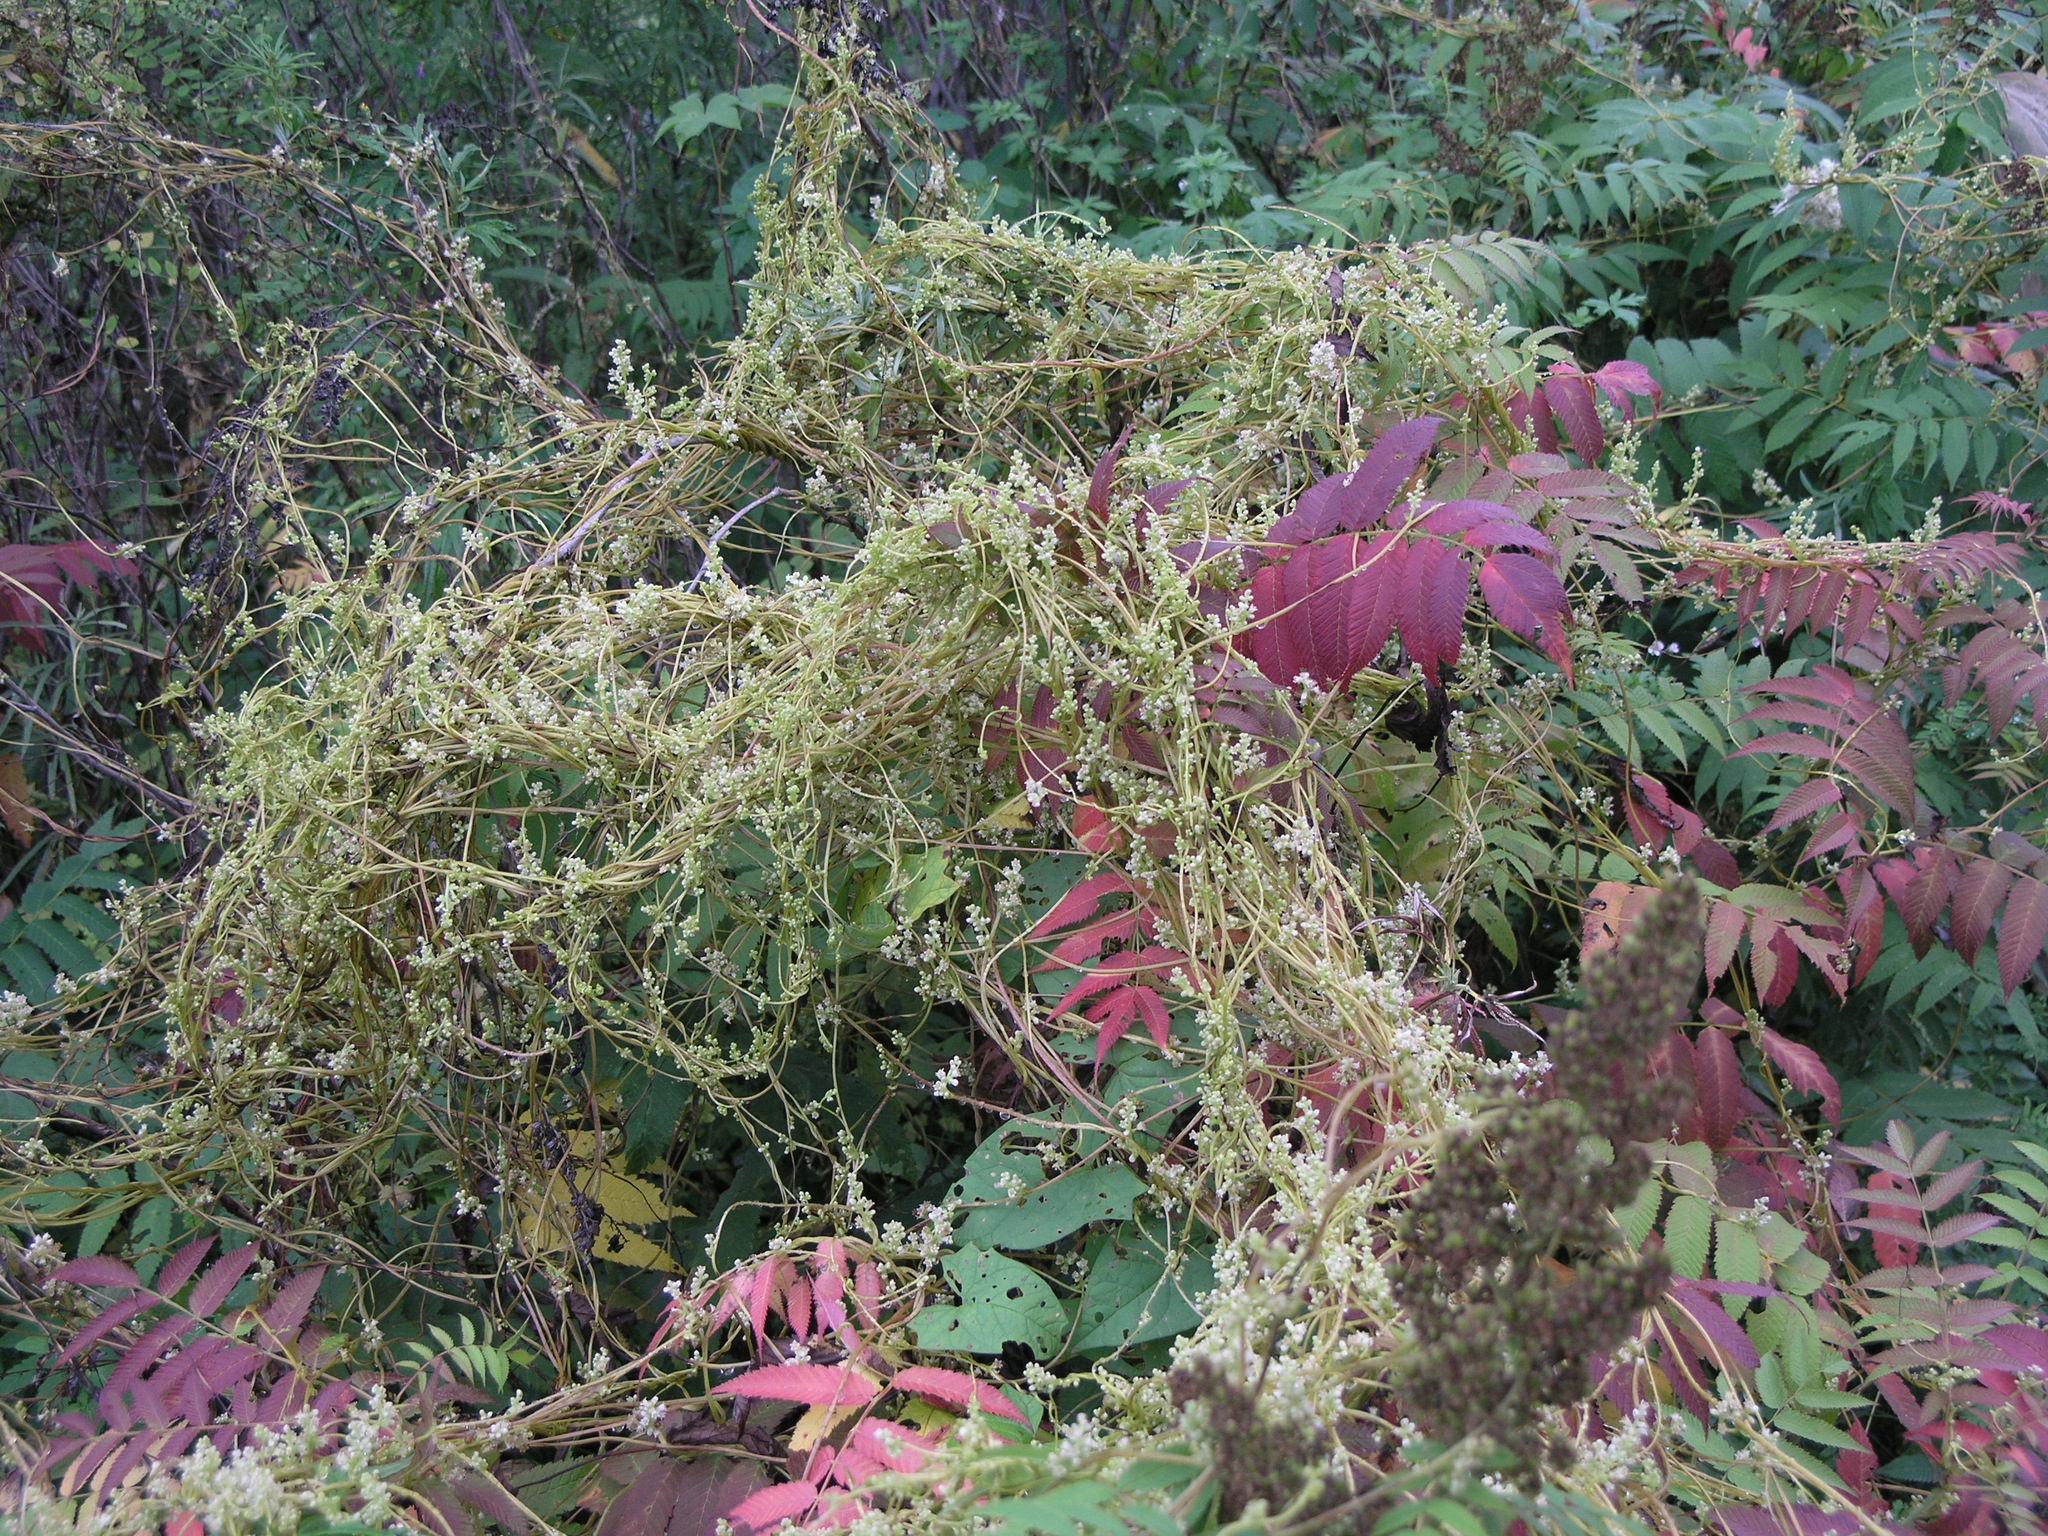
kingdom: Plantae
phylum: Tracheophyta
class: Magnoliopsida
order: Solanales
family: Convolvulaceae
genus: Cuscuta
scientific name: Cuscuta japonica
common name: Japanese dodder
